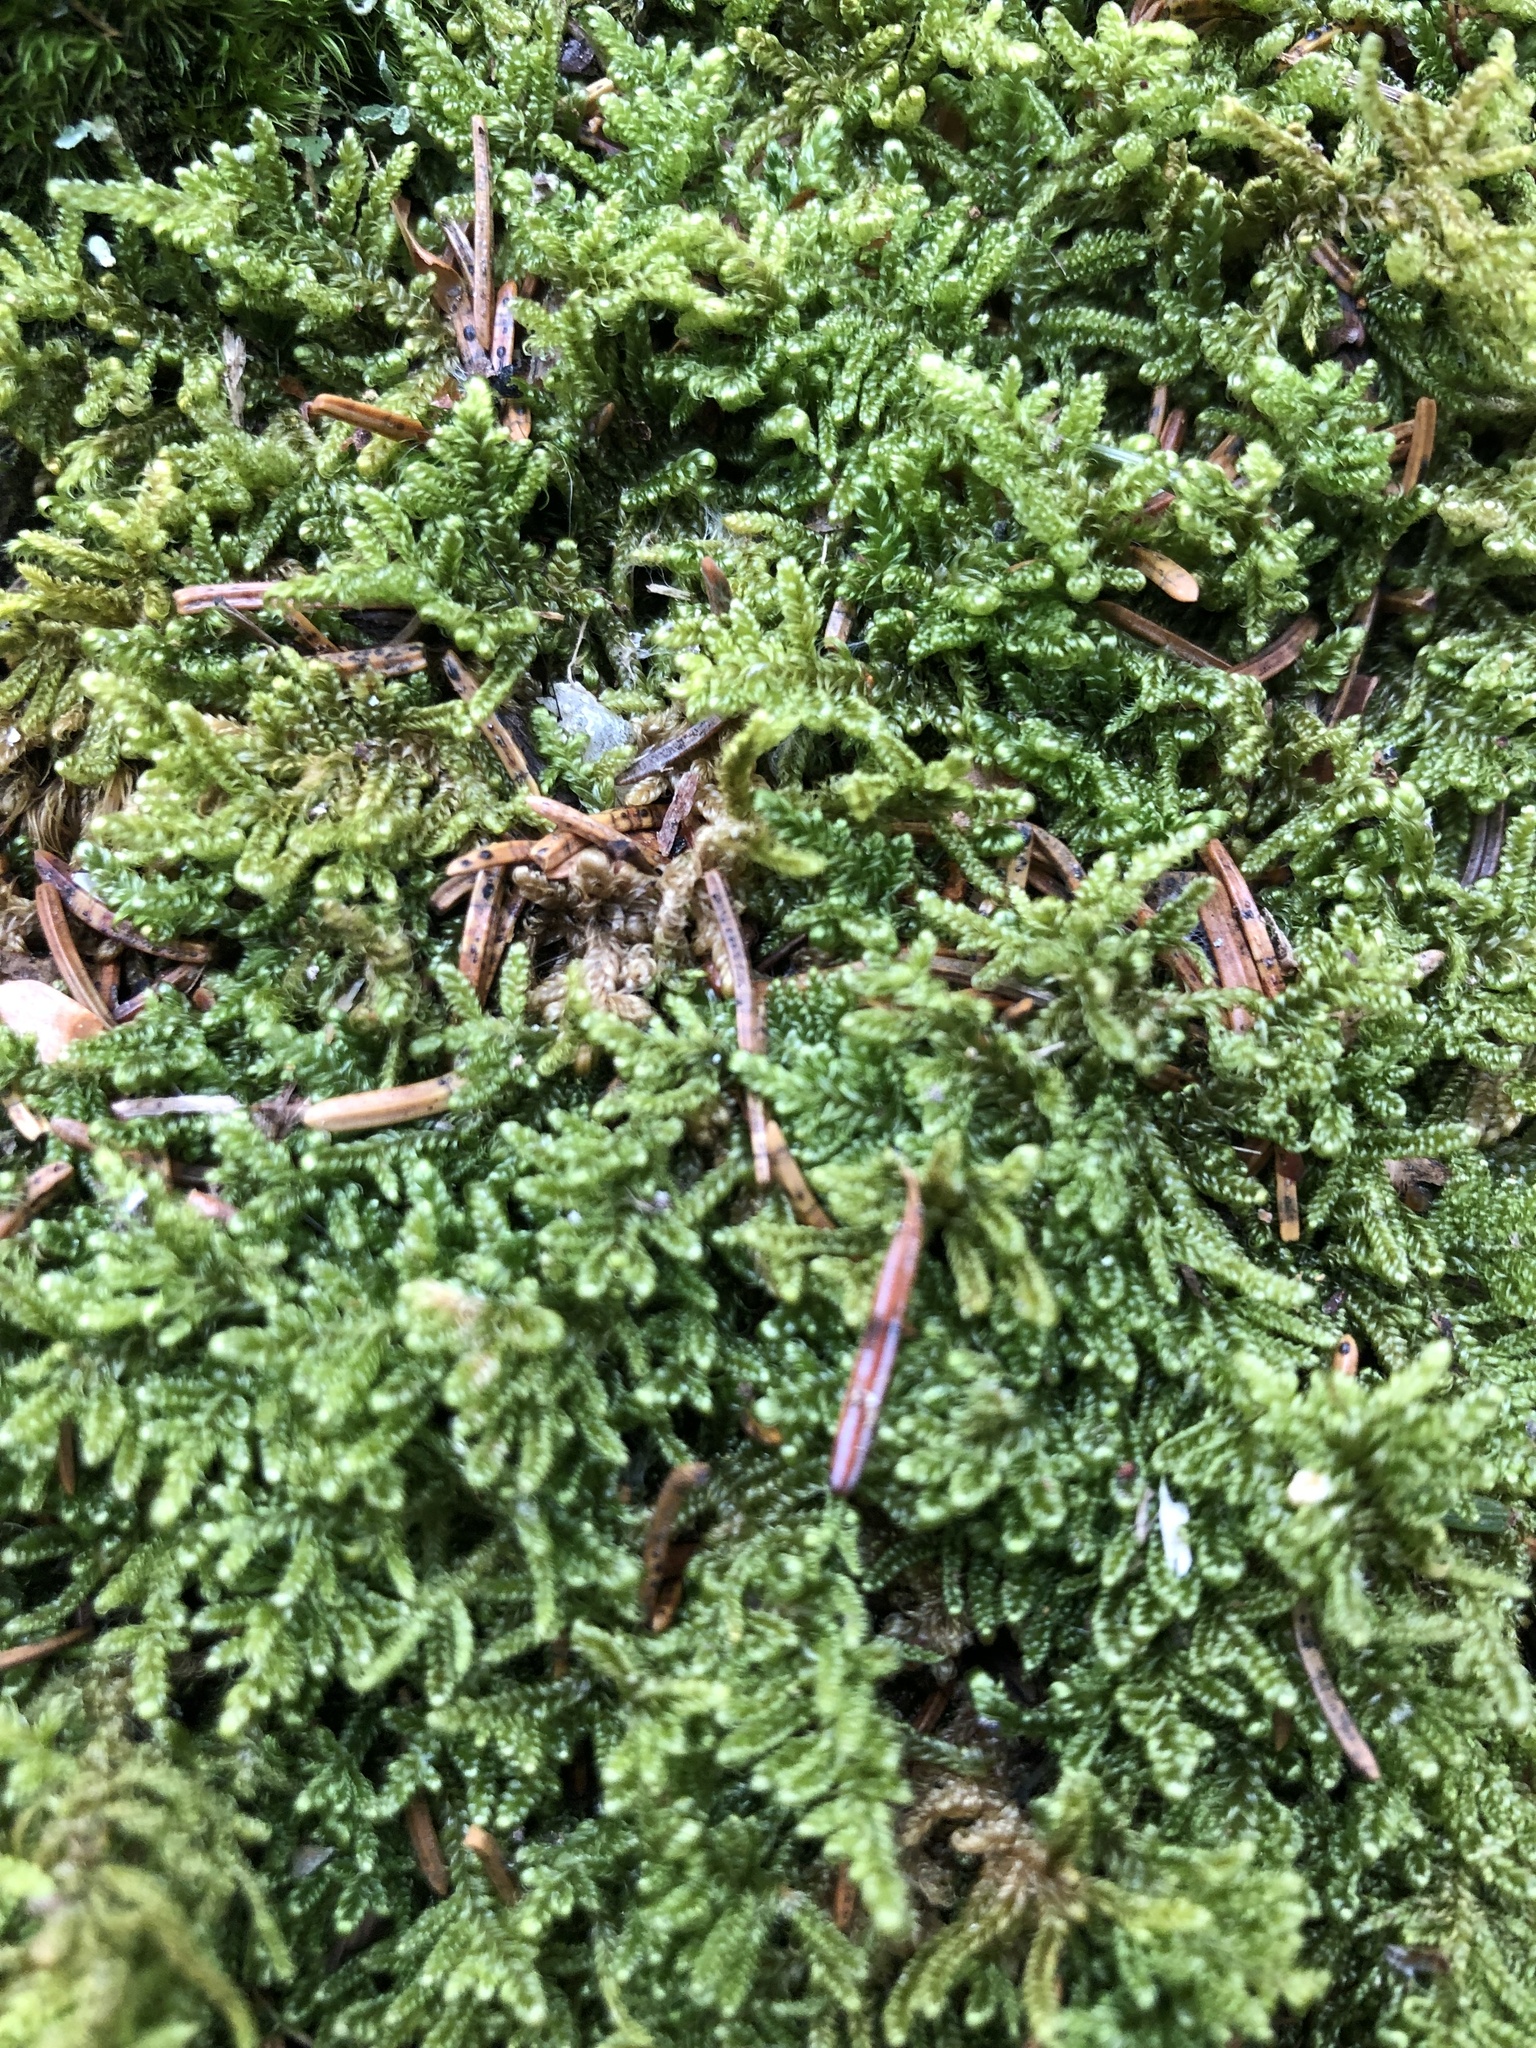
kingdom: Plantae
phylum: Bryophyta
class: Bryopsida
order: Hypnales
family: Callicladiaceae
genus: Callicladium
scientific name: Callicladium imponens
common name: Brocade moss
